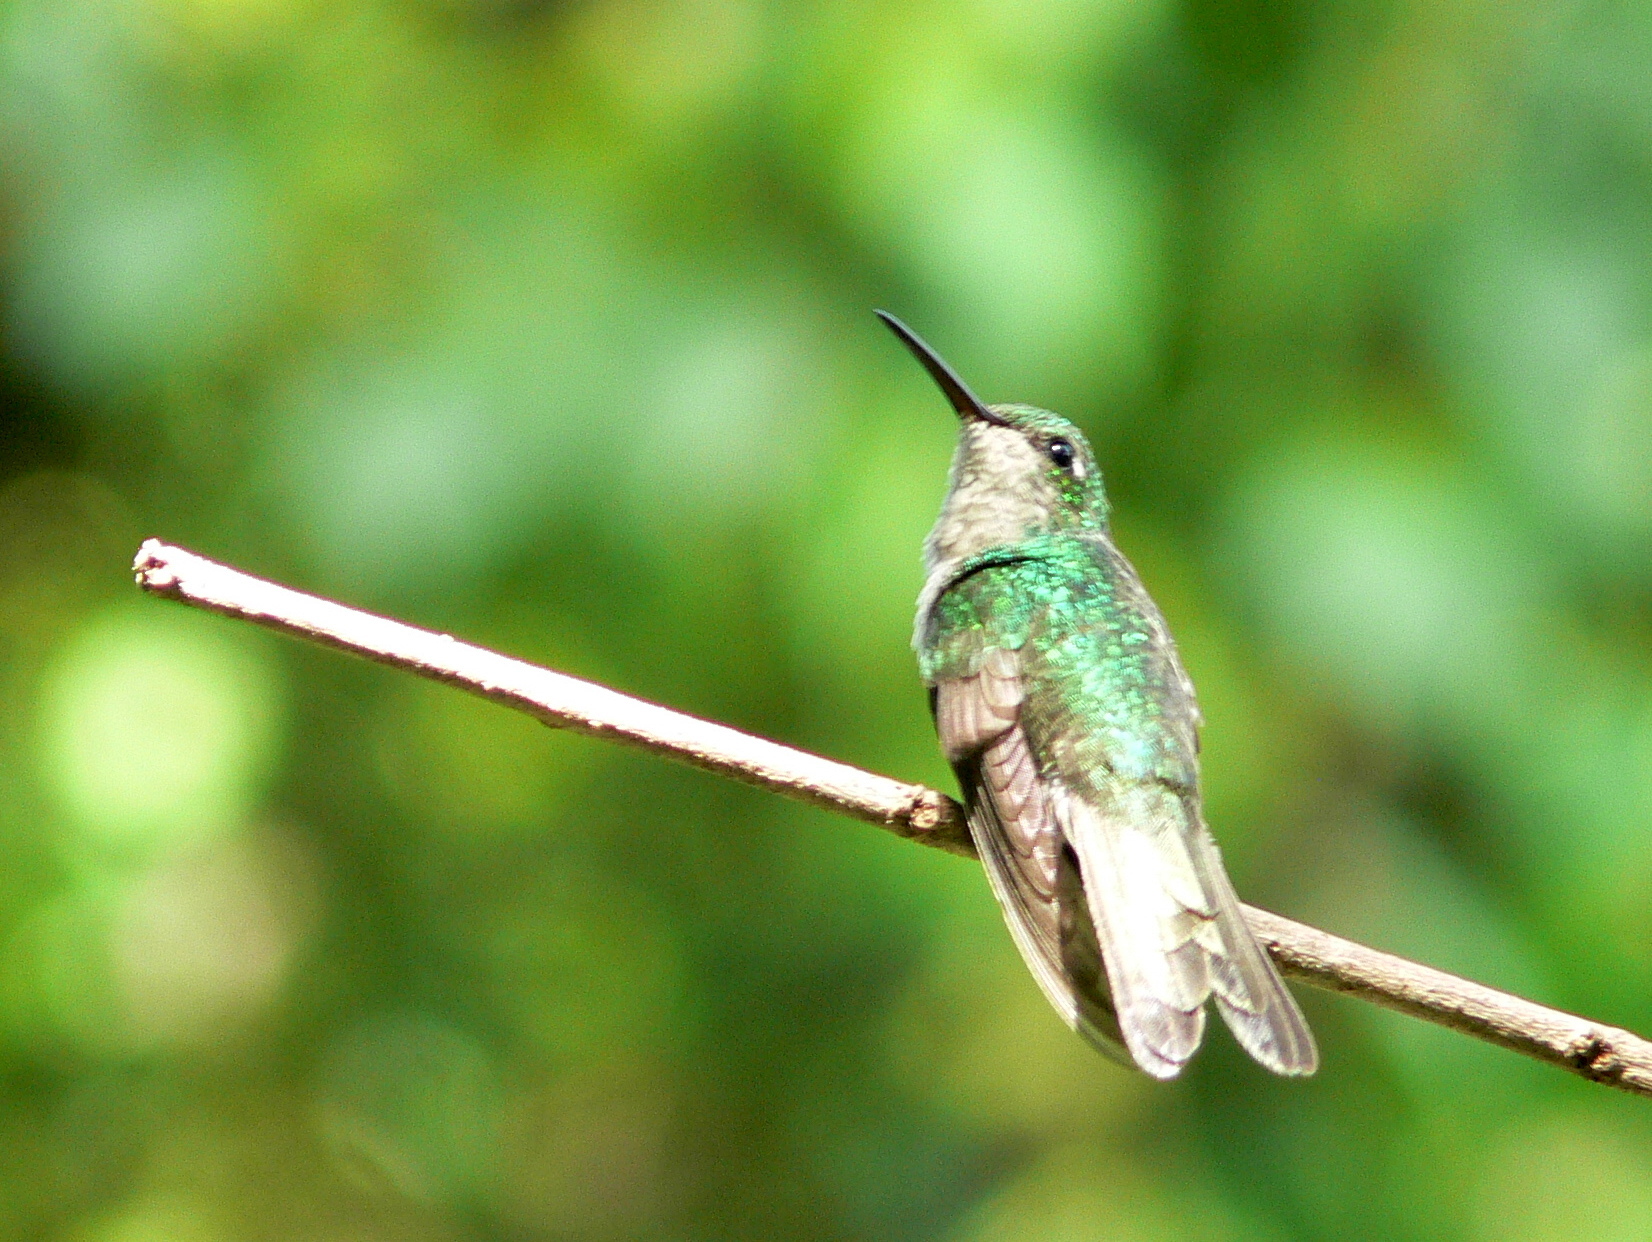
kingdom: Animalia
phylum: Chordata
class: Aves
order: Apodiformes
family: Trochilidae
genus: Riccordia
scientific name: Riccordia ricordii
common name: Cuban emerald
